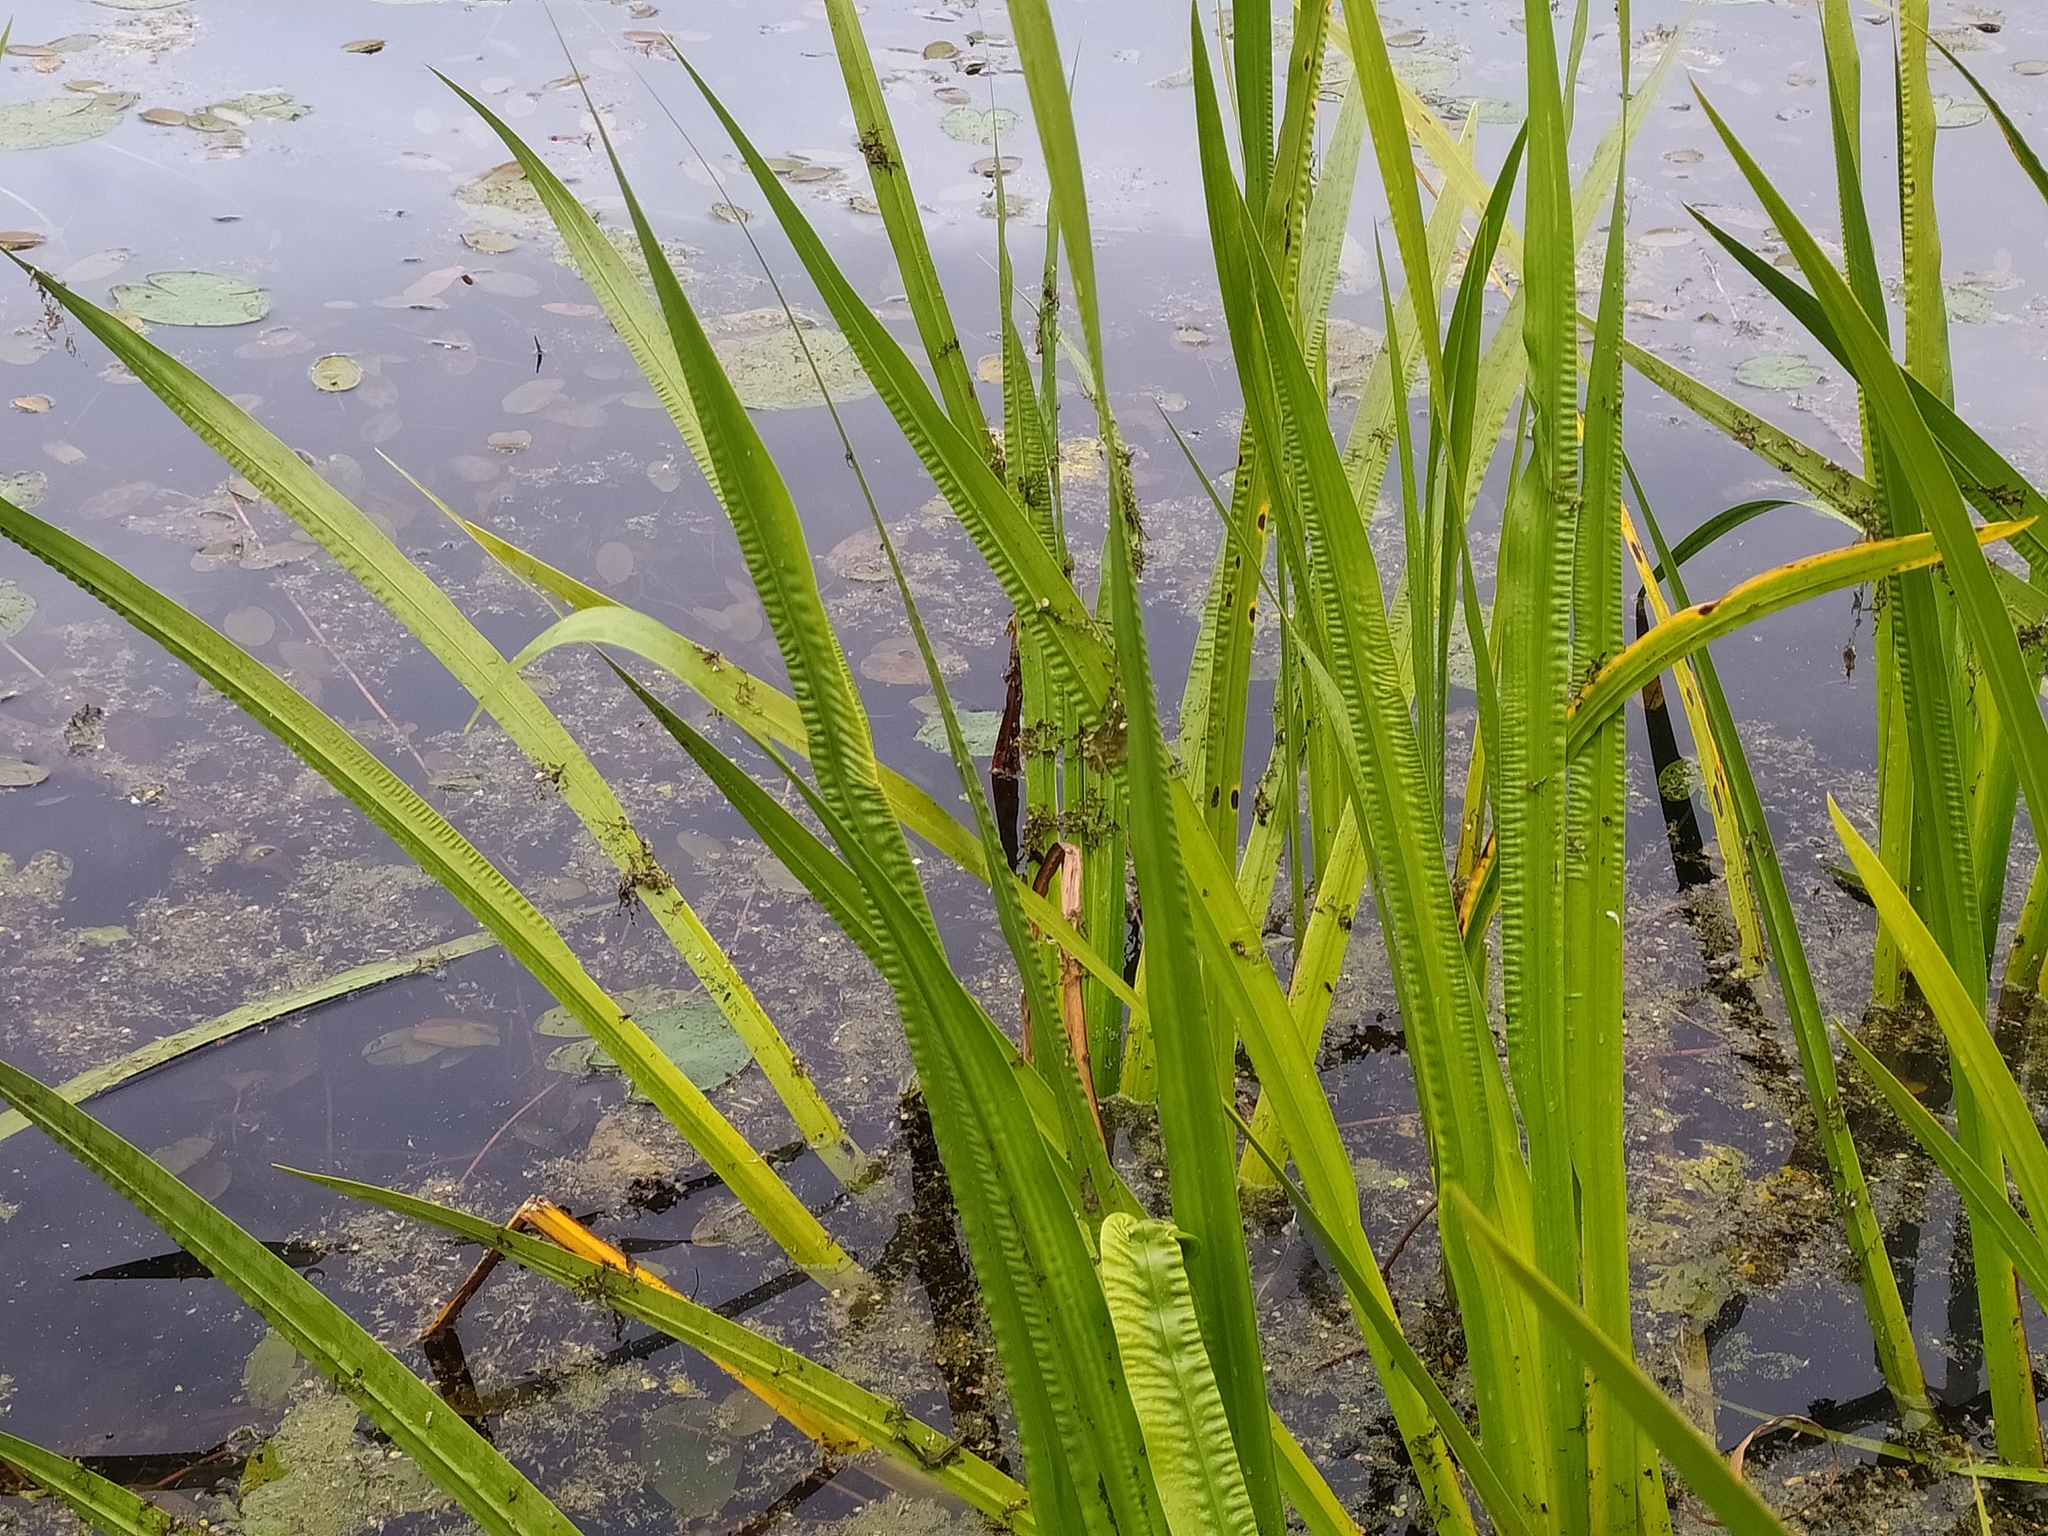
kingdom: Plantae
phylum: Tracheophyta
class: Liliopsida
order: Acorales
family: Acoraceae
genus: Acorus
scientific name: Acorus calamus
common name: Sweet-flag
